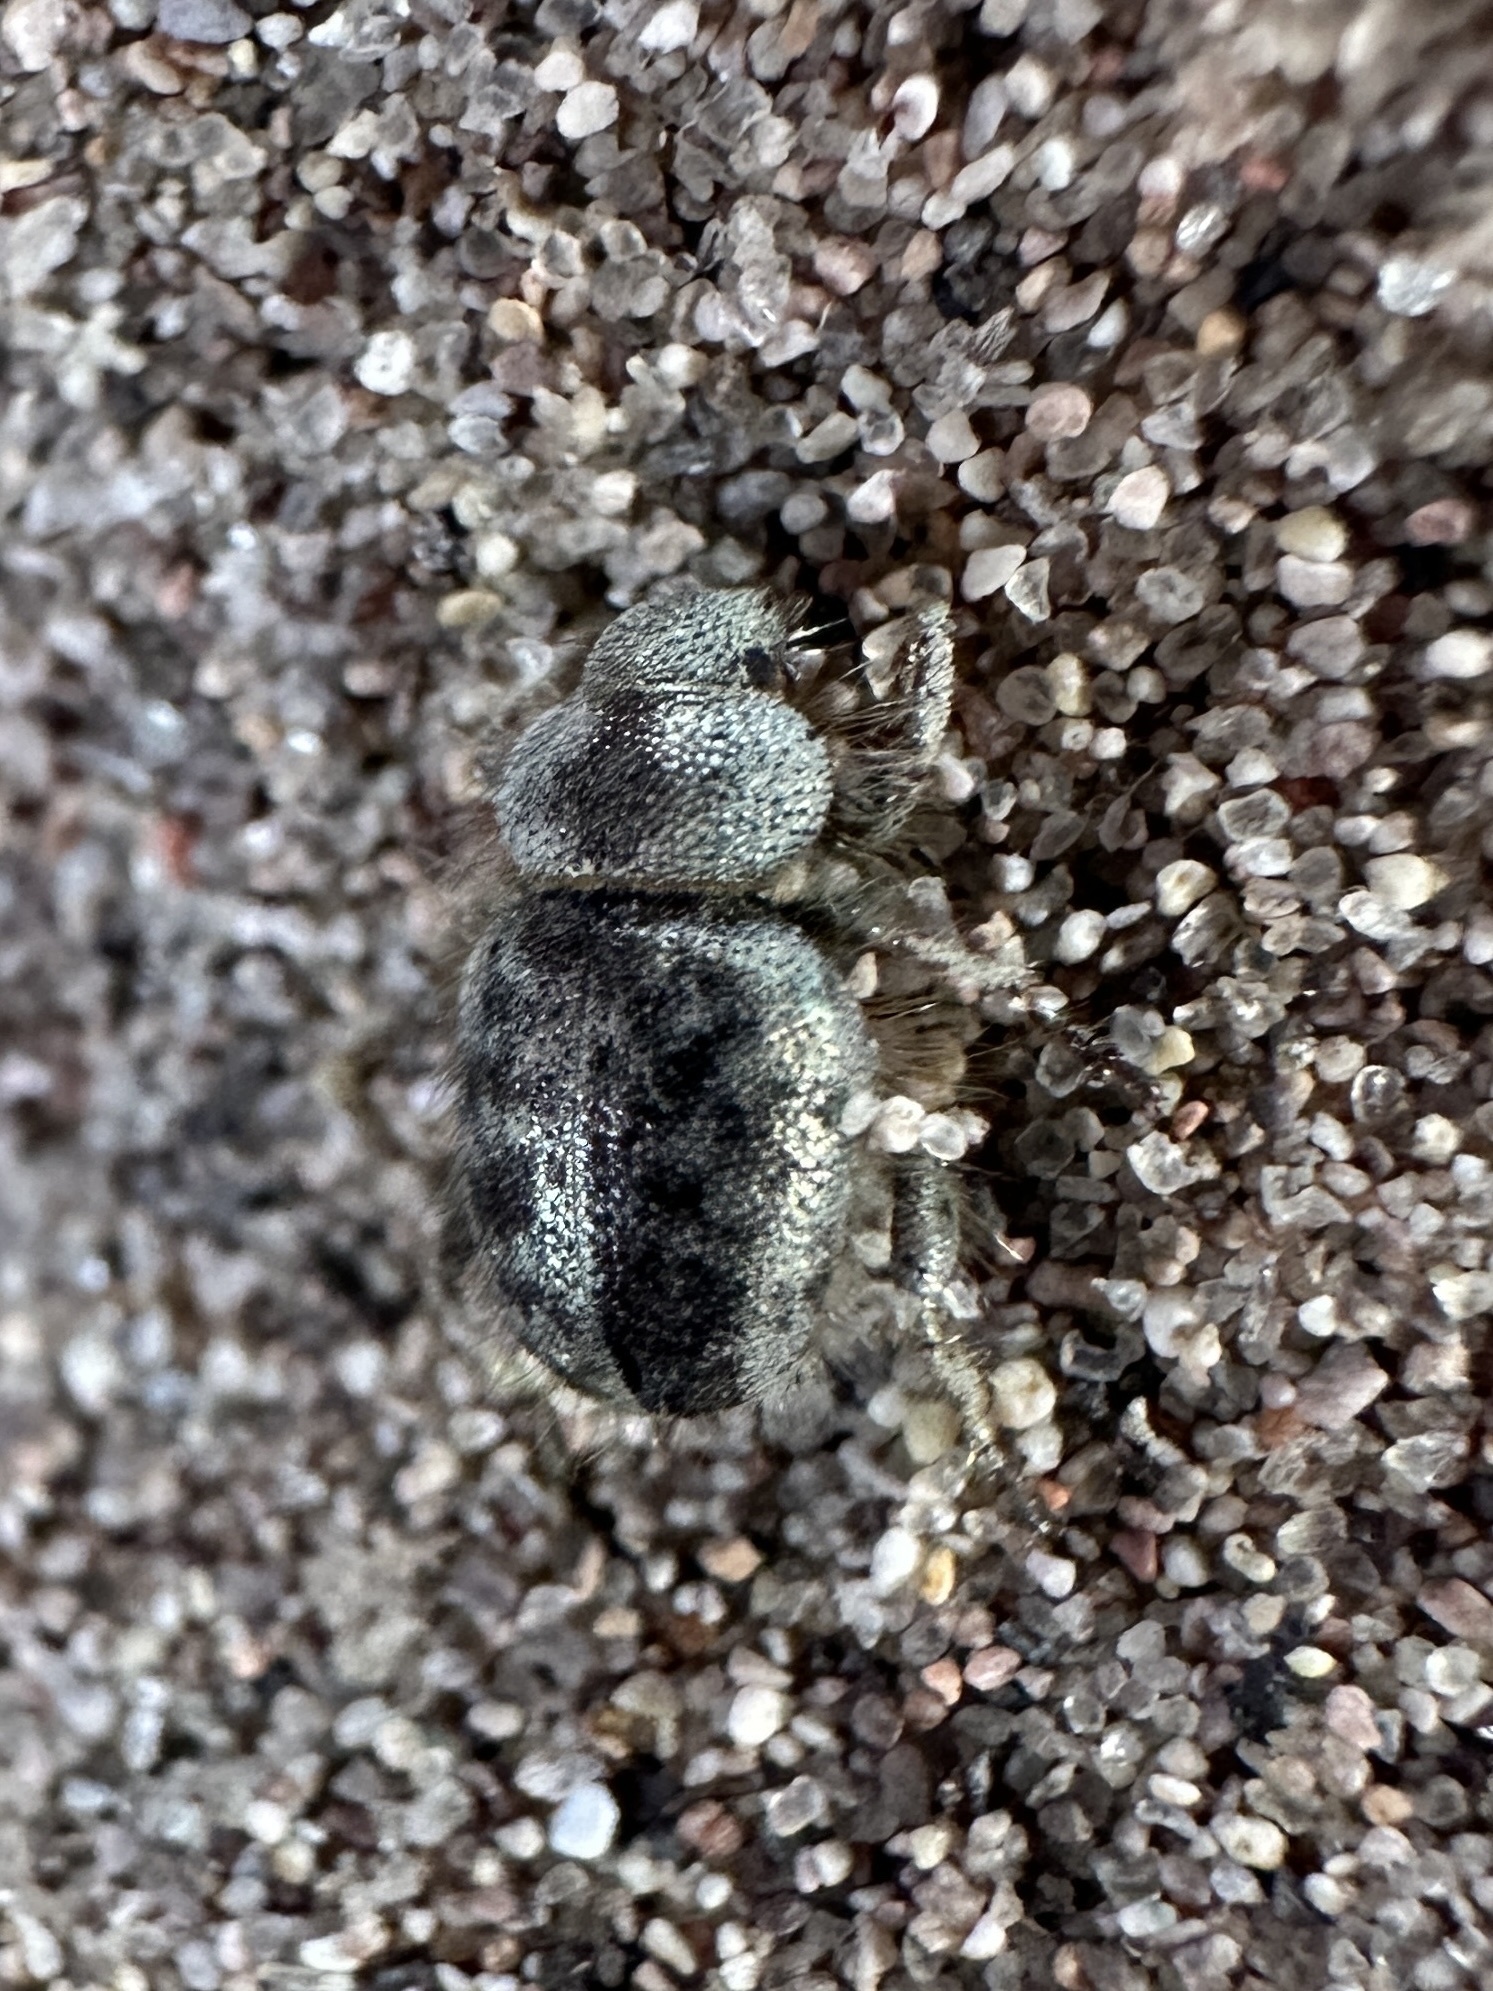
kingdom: Animalia
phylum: Arthropoda
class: Insecta
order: Coleoptera
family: Curculionidae
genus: Miloderes
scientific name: Miloderes amargosensis
